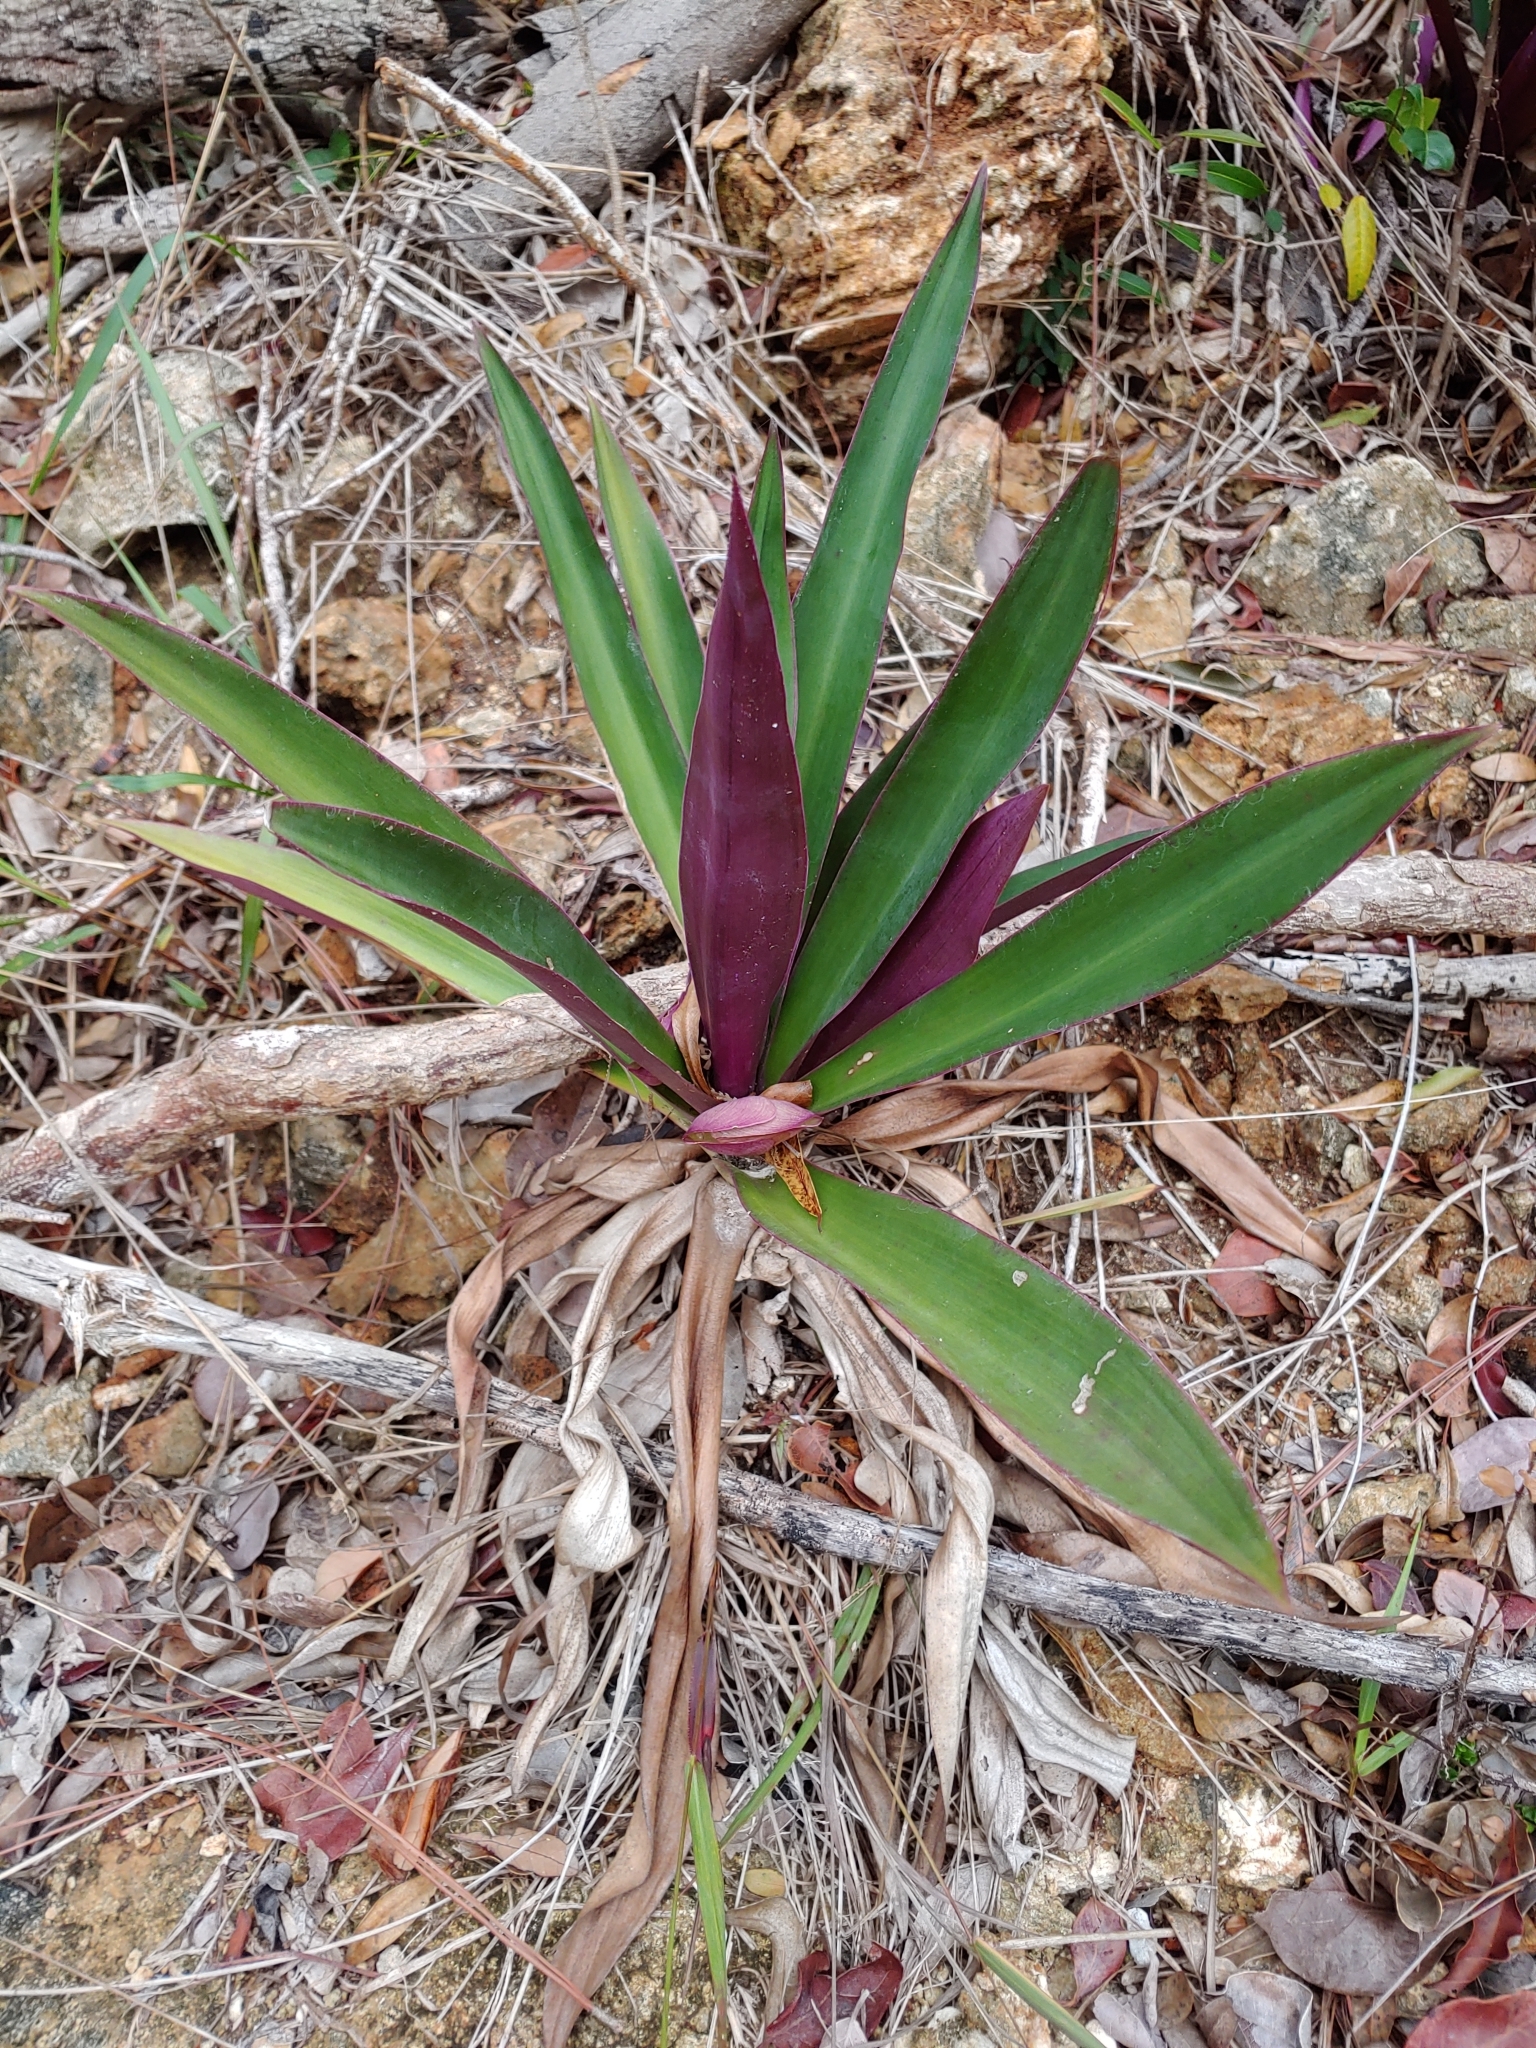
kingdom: Plantae
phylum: Tracheophyta
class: Liliopsida
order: Commelinales
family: Commelinaceae
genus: Tradescantia
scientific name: Tradescantia spathacea
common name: Boatlily
